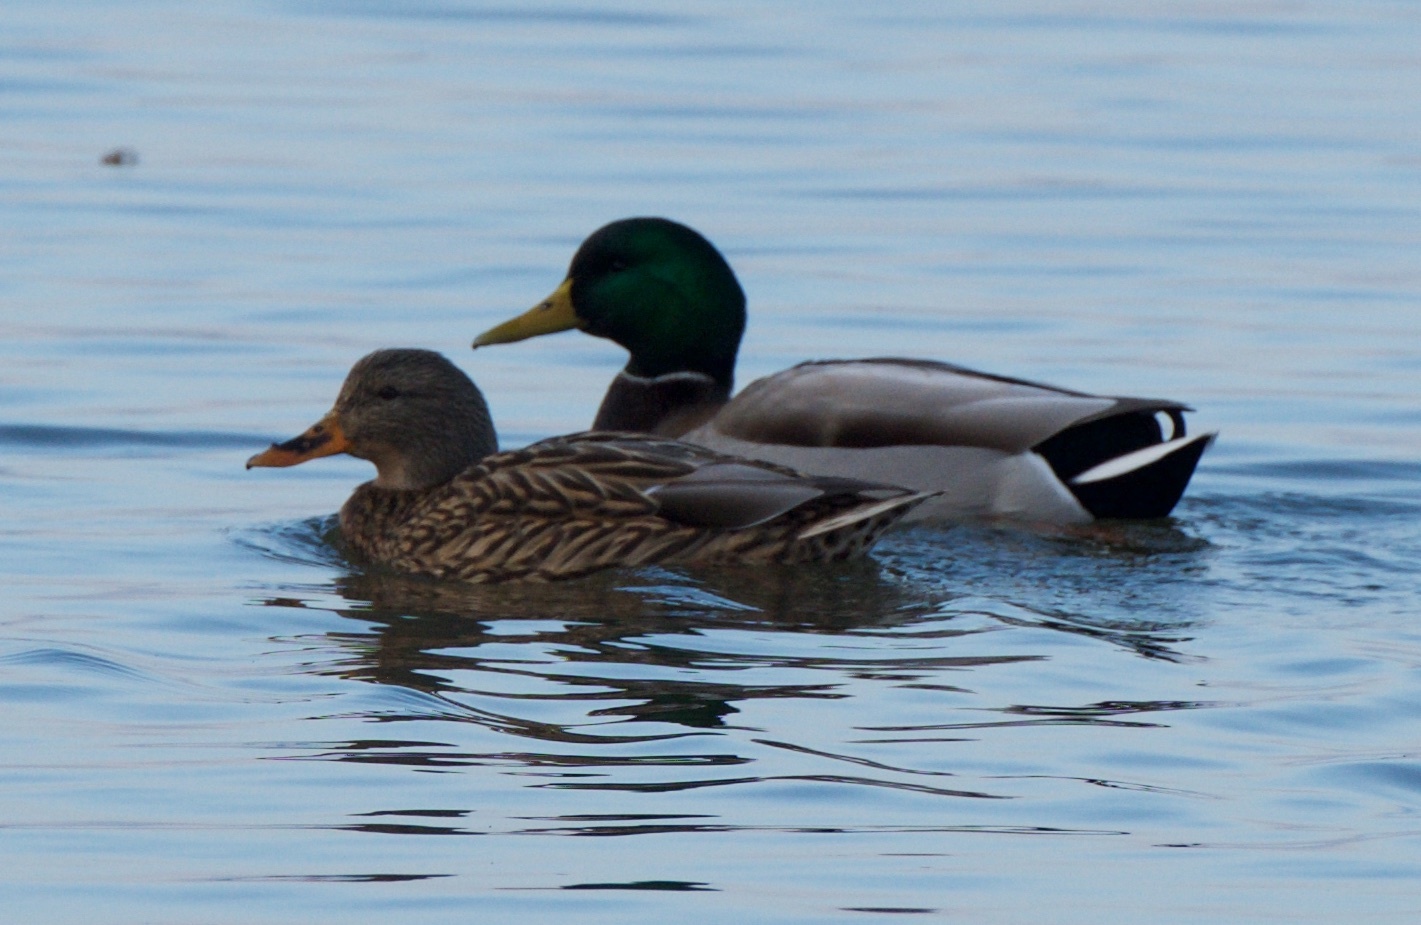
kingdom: Animalia
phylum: Chordata
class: Aves
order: Anseriformes
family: Anatidae
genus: Anas
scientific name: Anas platyrhynchos
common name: Mallard
